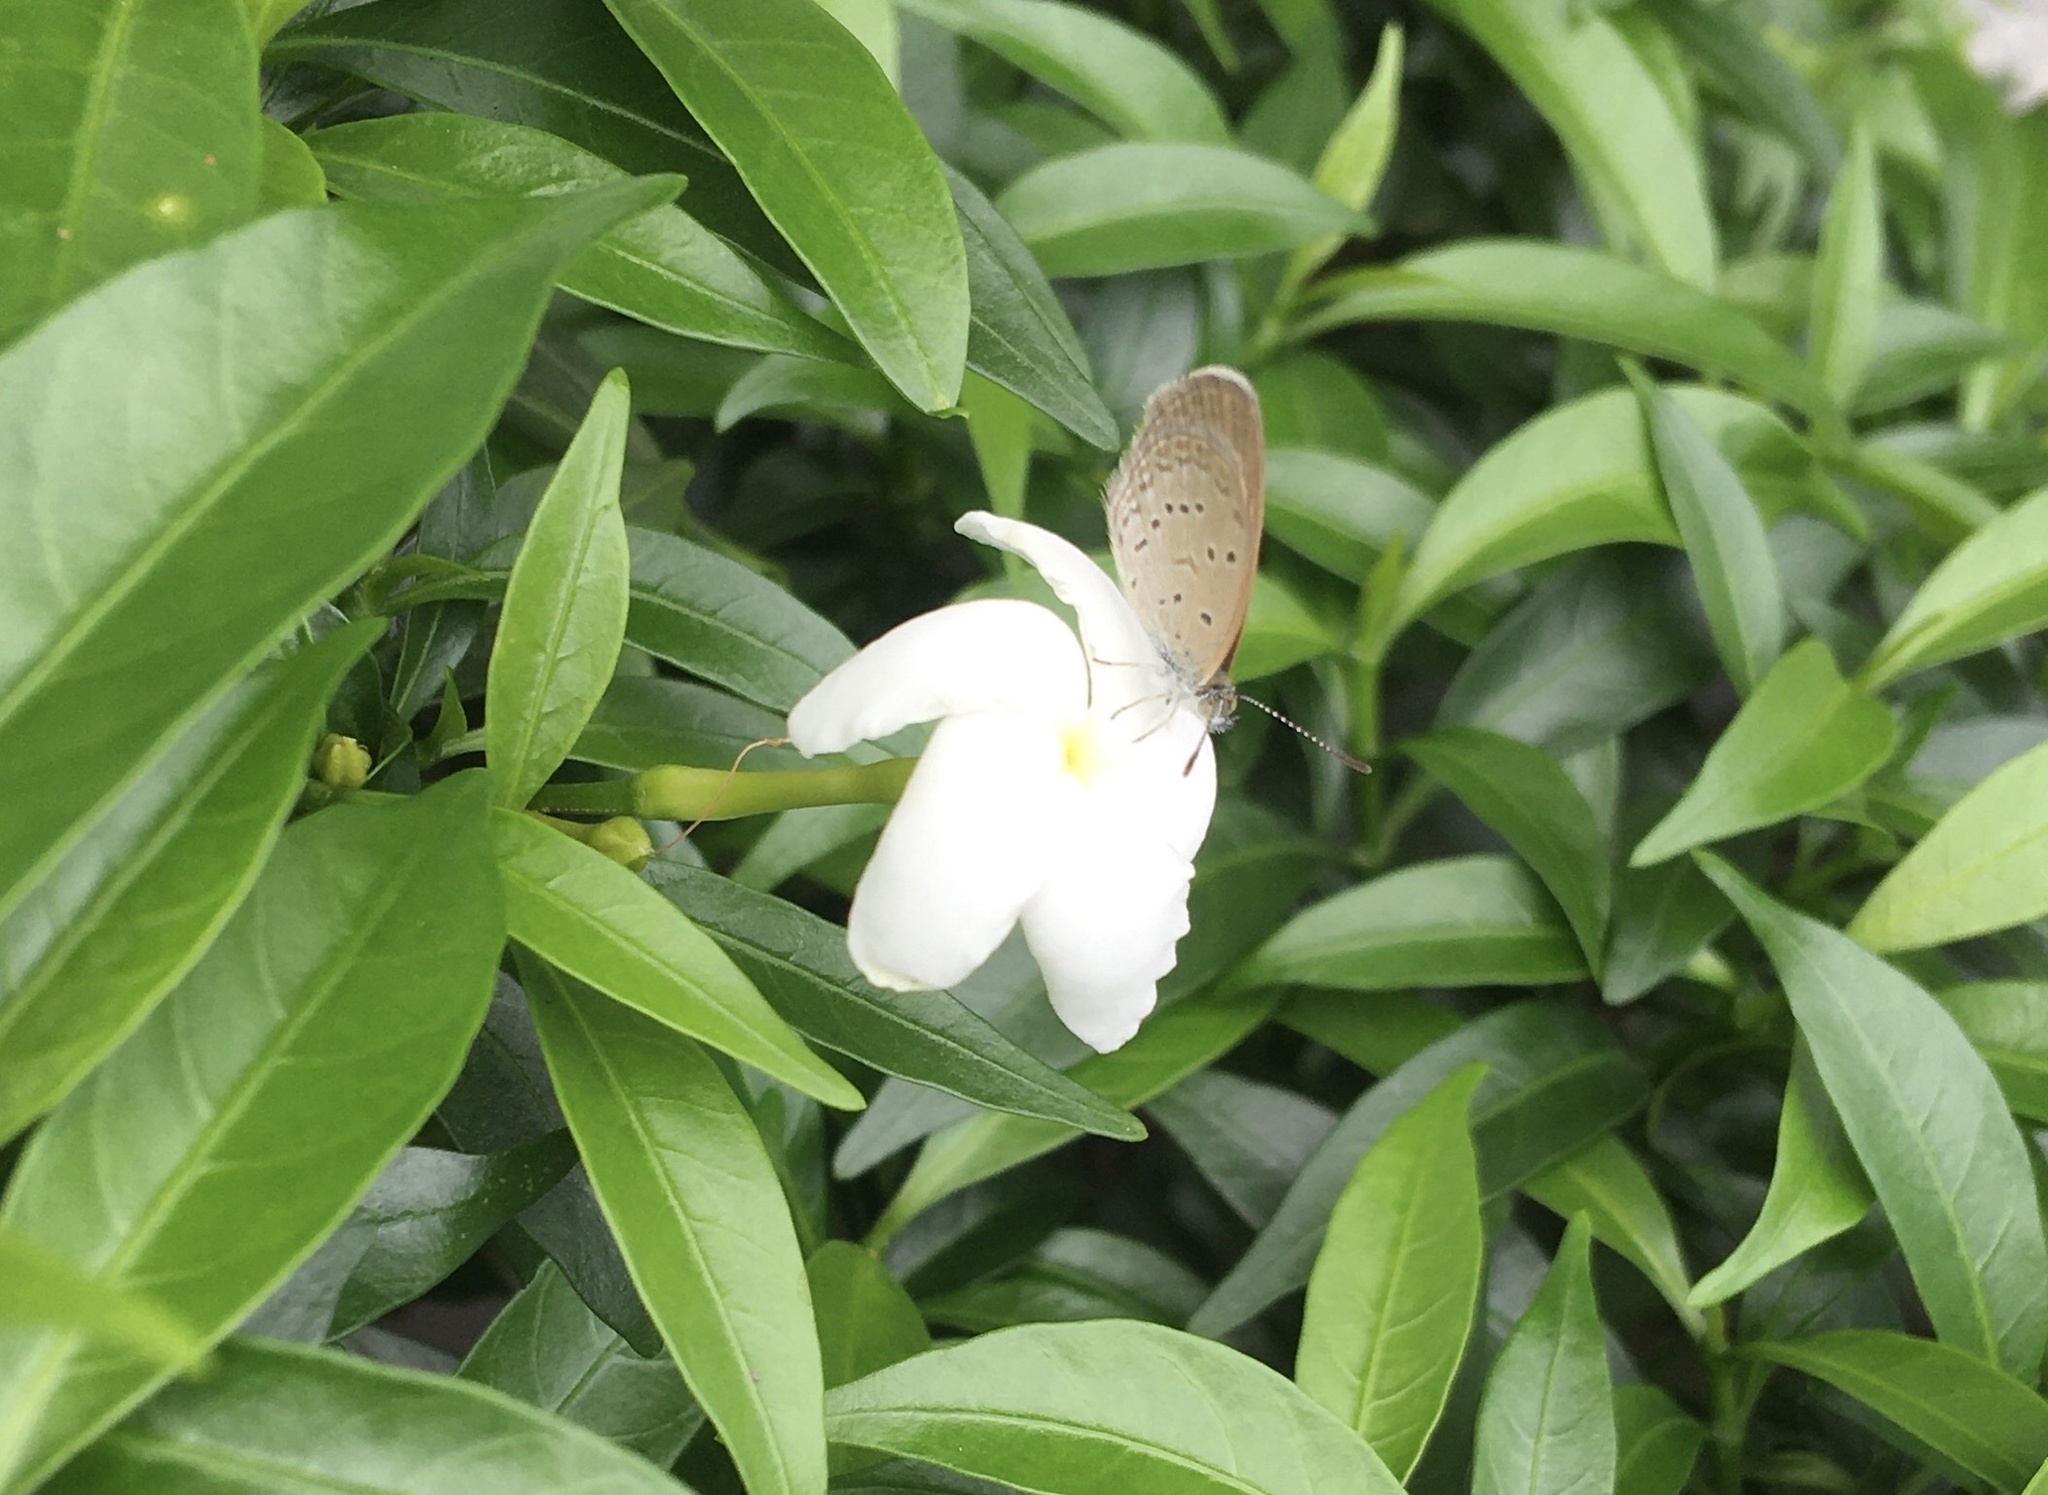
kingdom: Animalia
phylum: Arthropoda
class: Insecta
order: Lepidoptera
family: Lycaenidae
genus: Zizina
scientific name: Zizina otis
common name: Lesser grass blue
